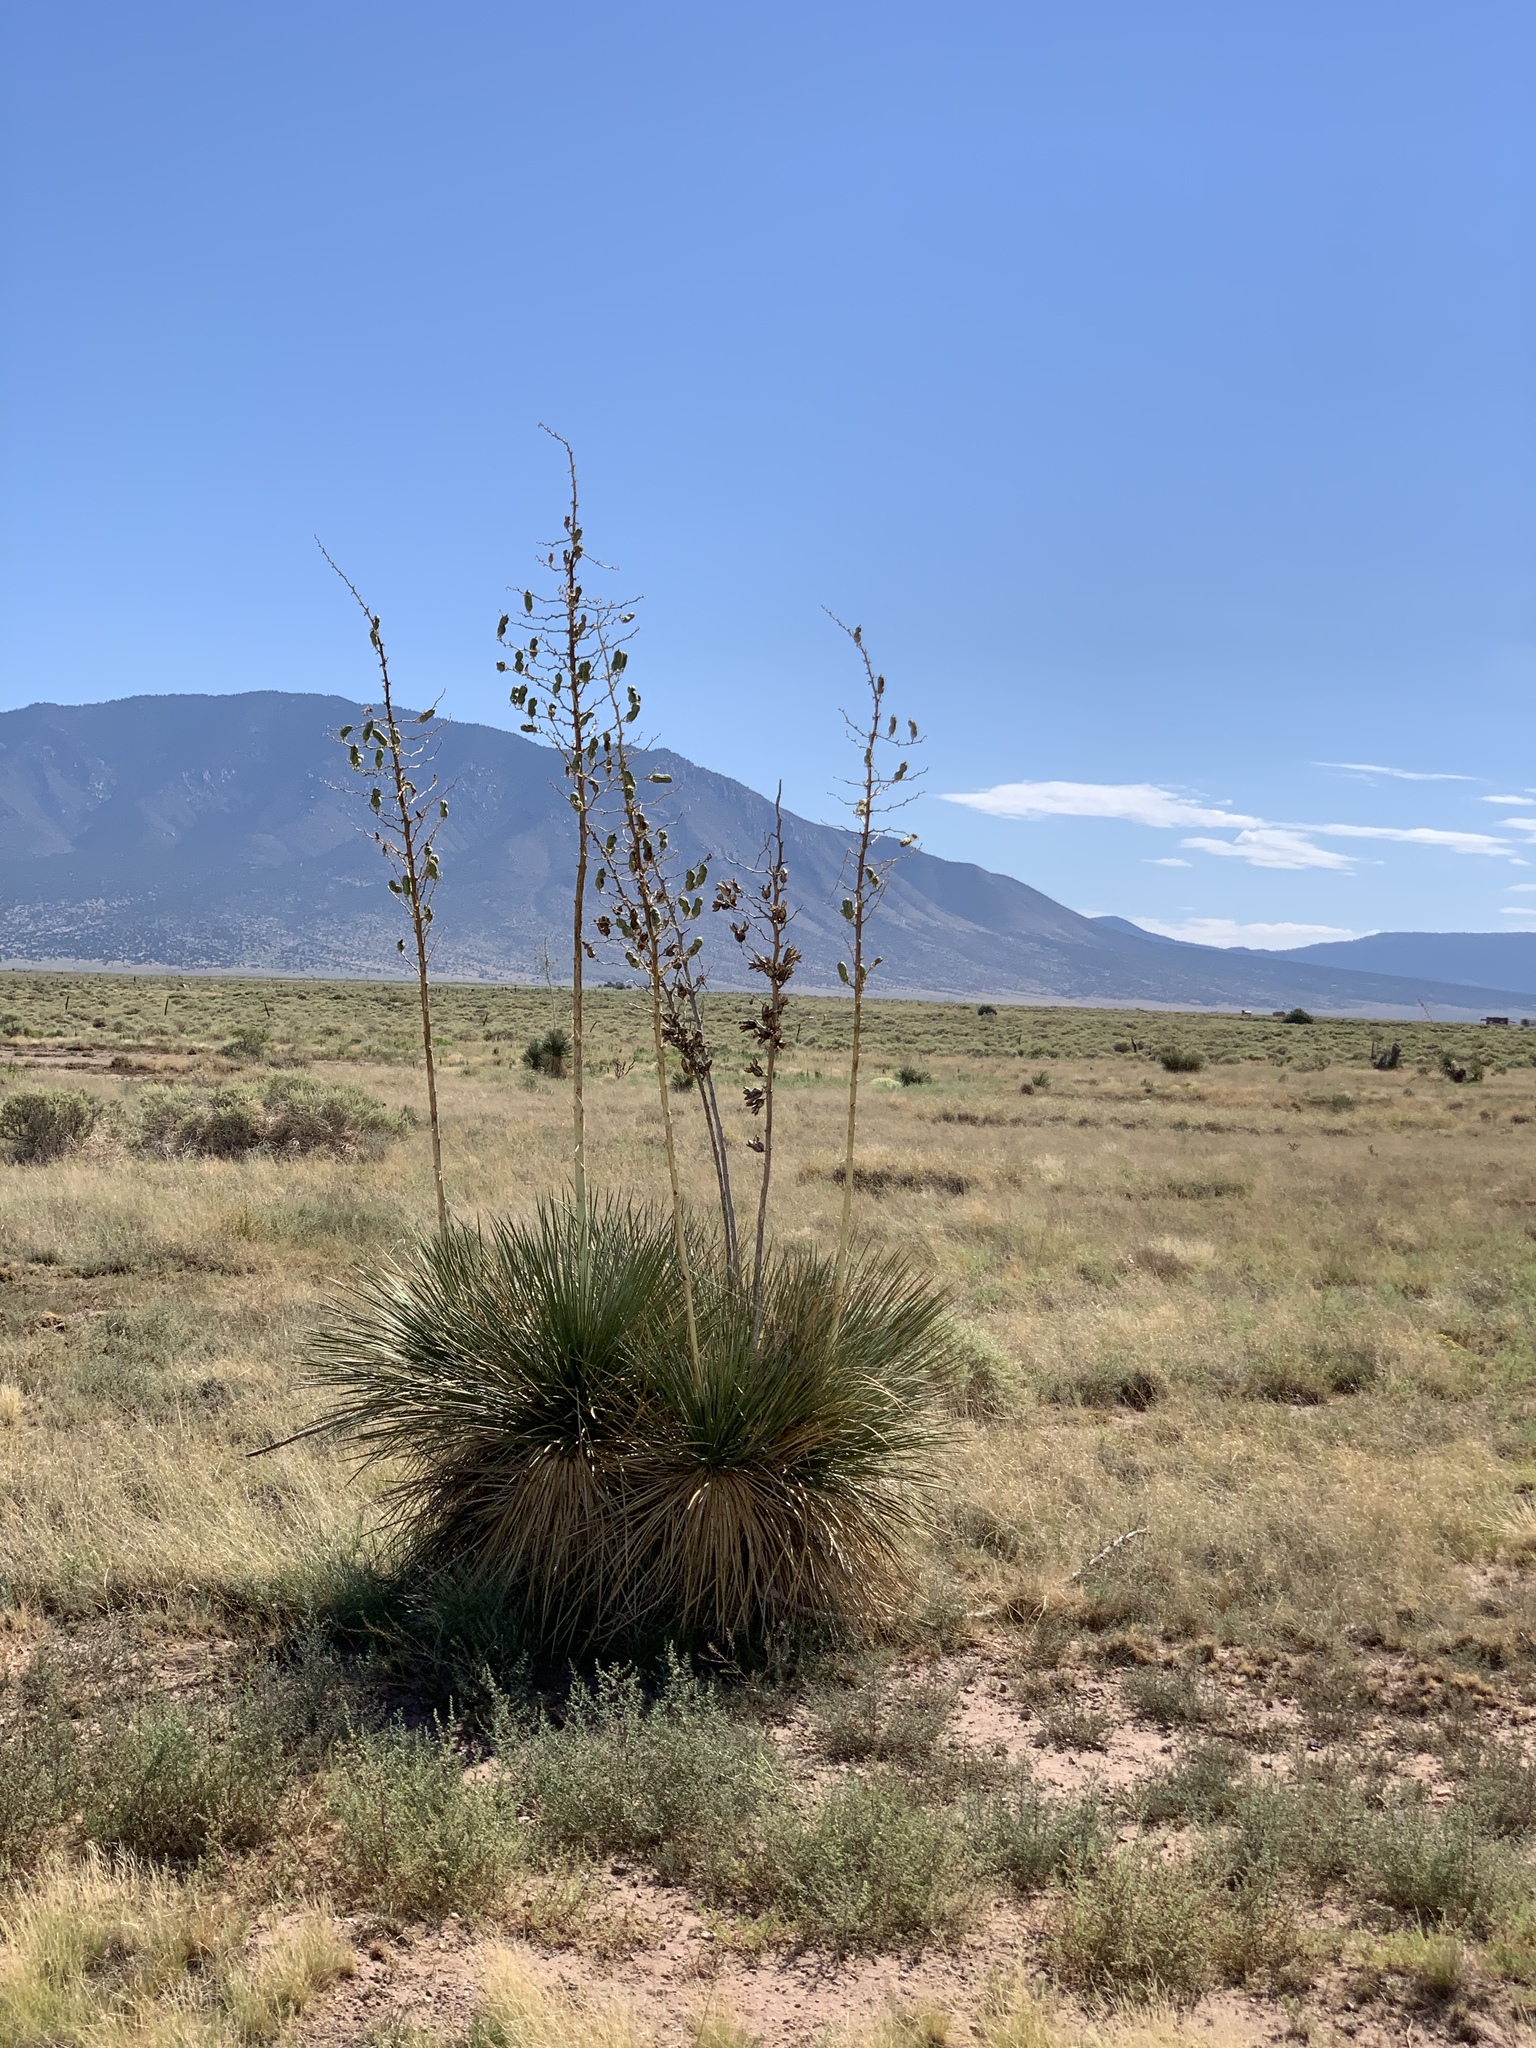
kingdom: Plantae
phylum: Tracheophyta
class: Liliopsida
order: Asparagales
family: Asparagaceae
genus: Yucca
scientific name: Yucca elata
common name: Palmella
